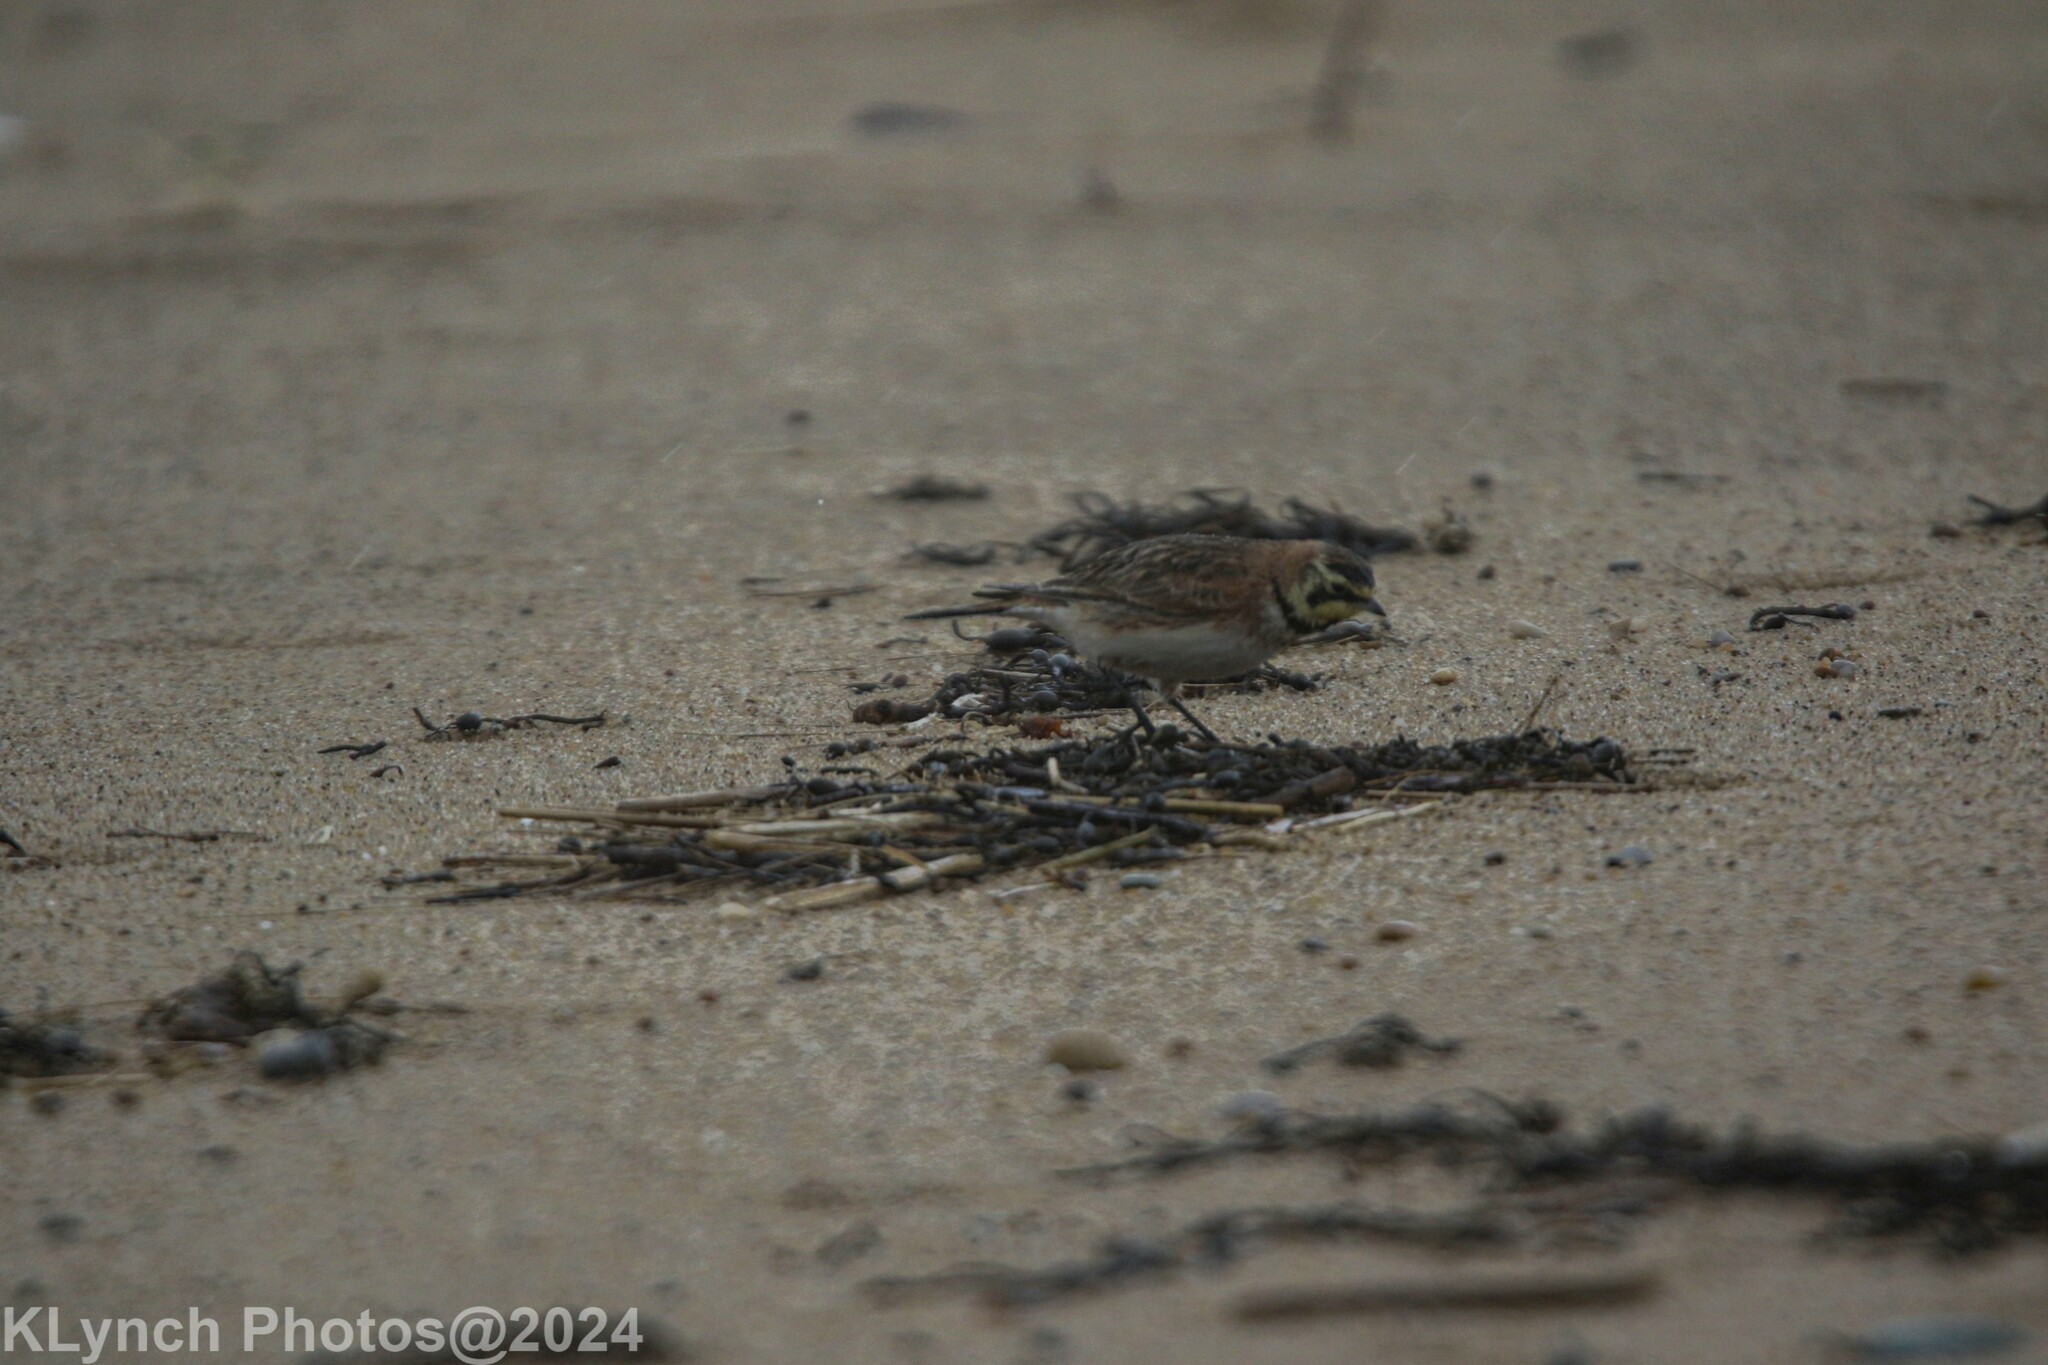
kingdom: Animalia
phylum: Chordata
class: Aves
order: Passeriformes
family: Alaudidae
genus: Eremophila
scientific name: Eremophila alpestris
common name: Horned lark
